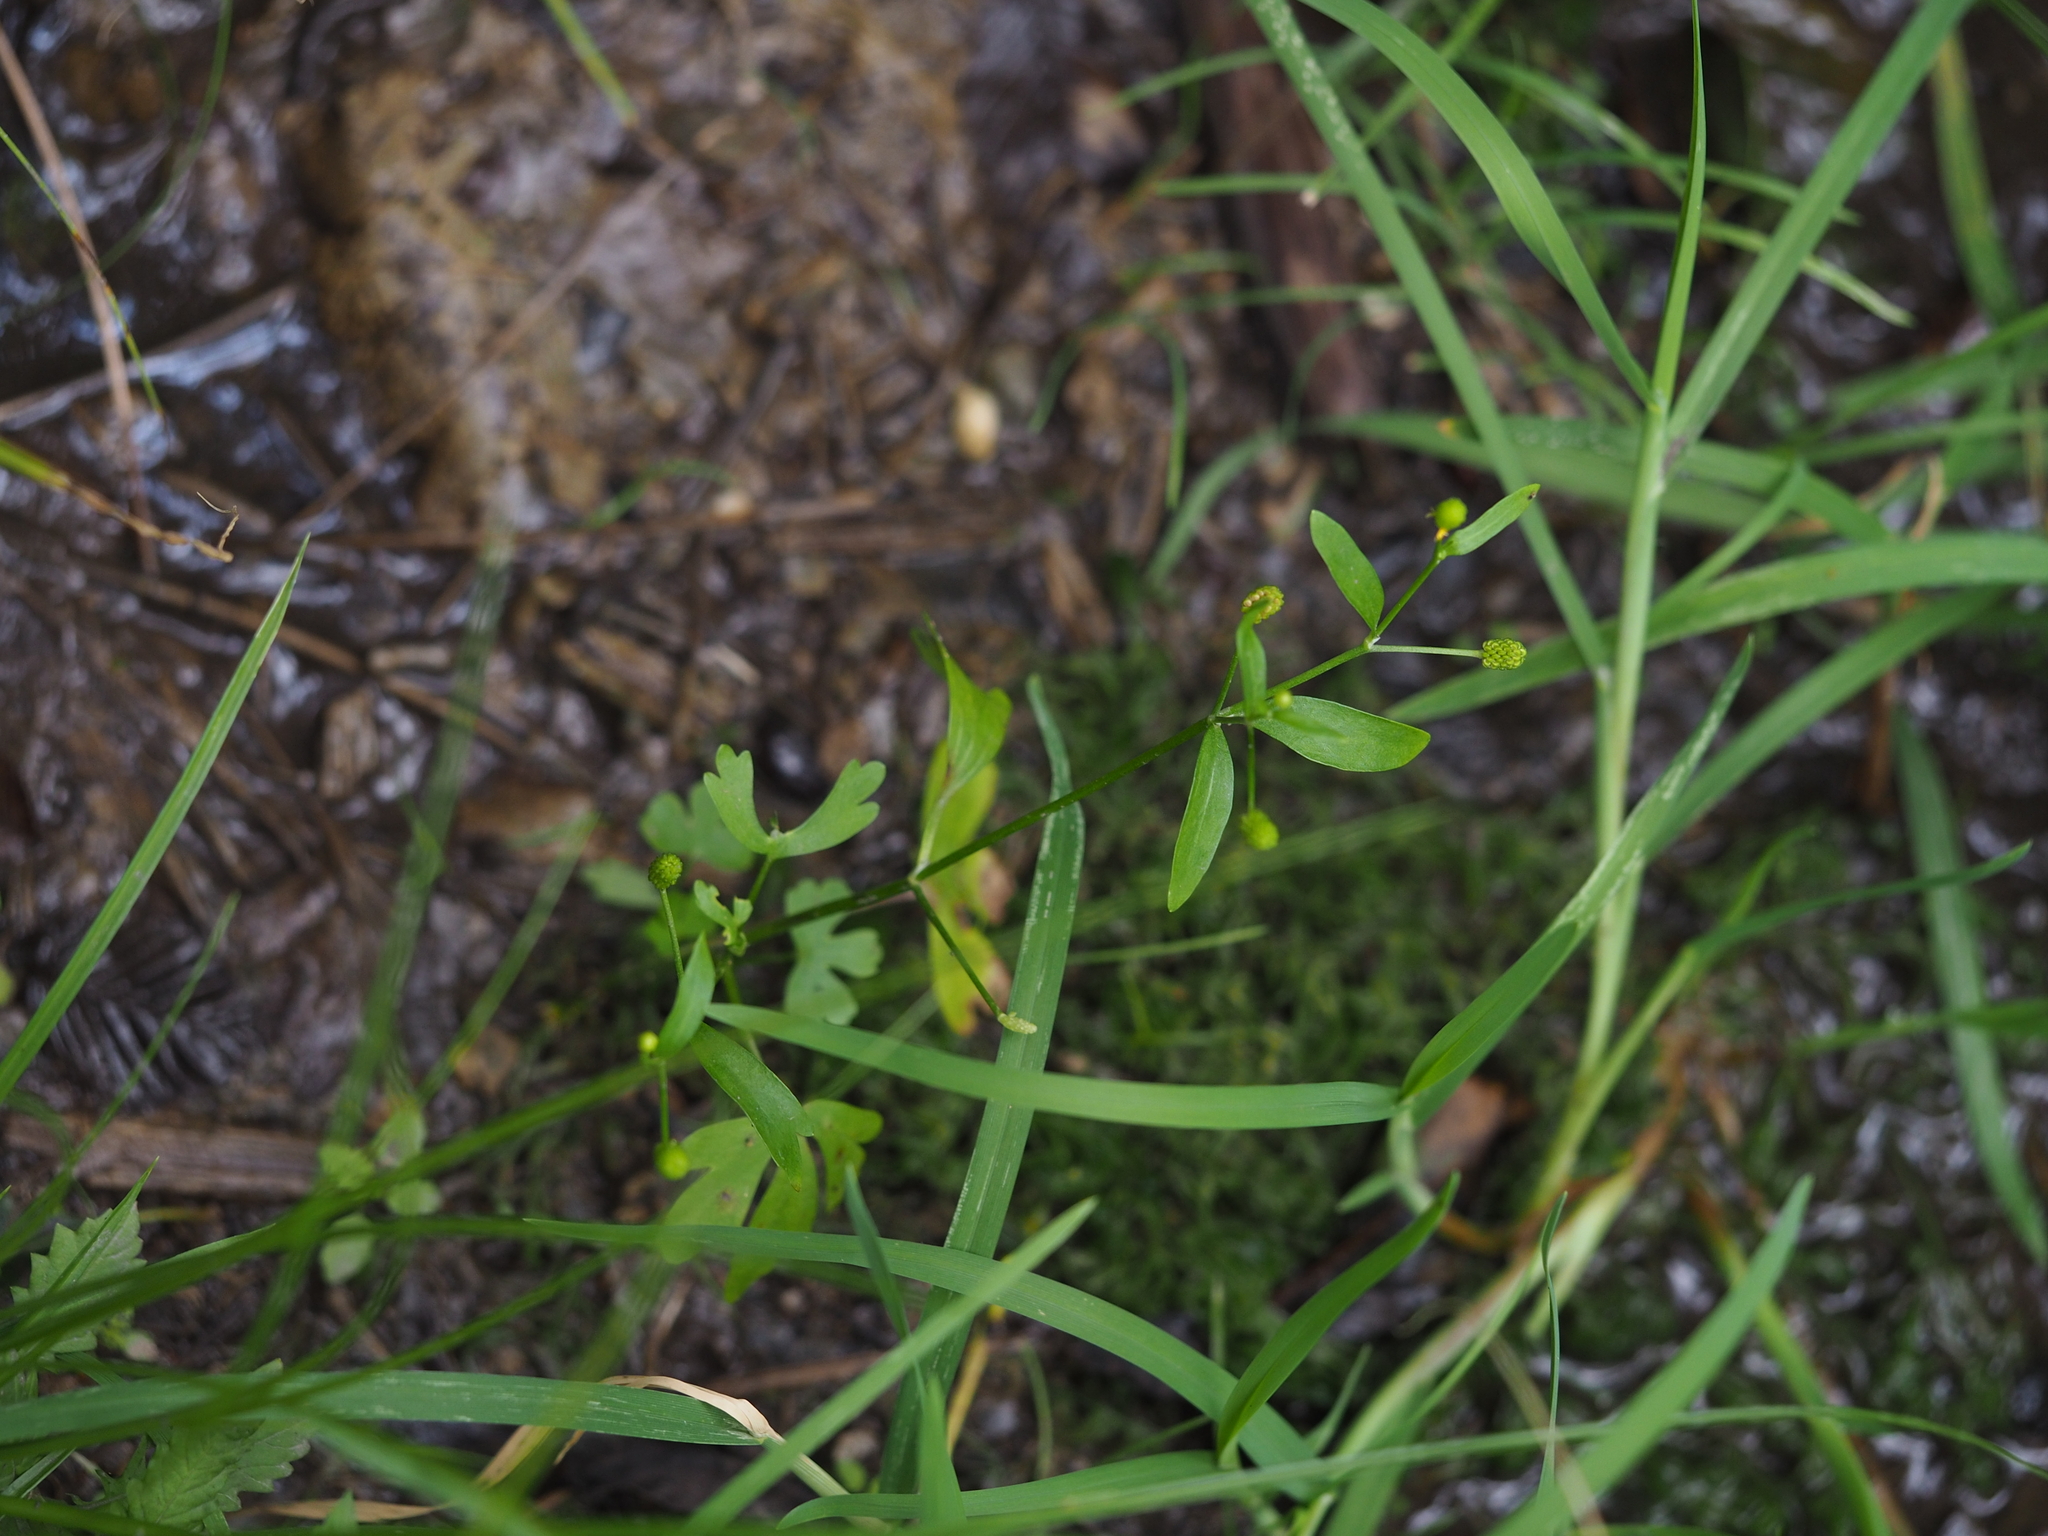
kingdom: Plantae
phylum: Tracheophyta
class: Magnoliopsida
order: Ranunculales
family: Ranunculaceae
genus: Ranunculus
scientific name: Ranunculus sceleratus
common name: Celery-leaved buttercup
